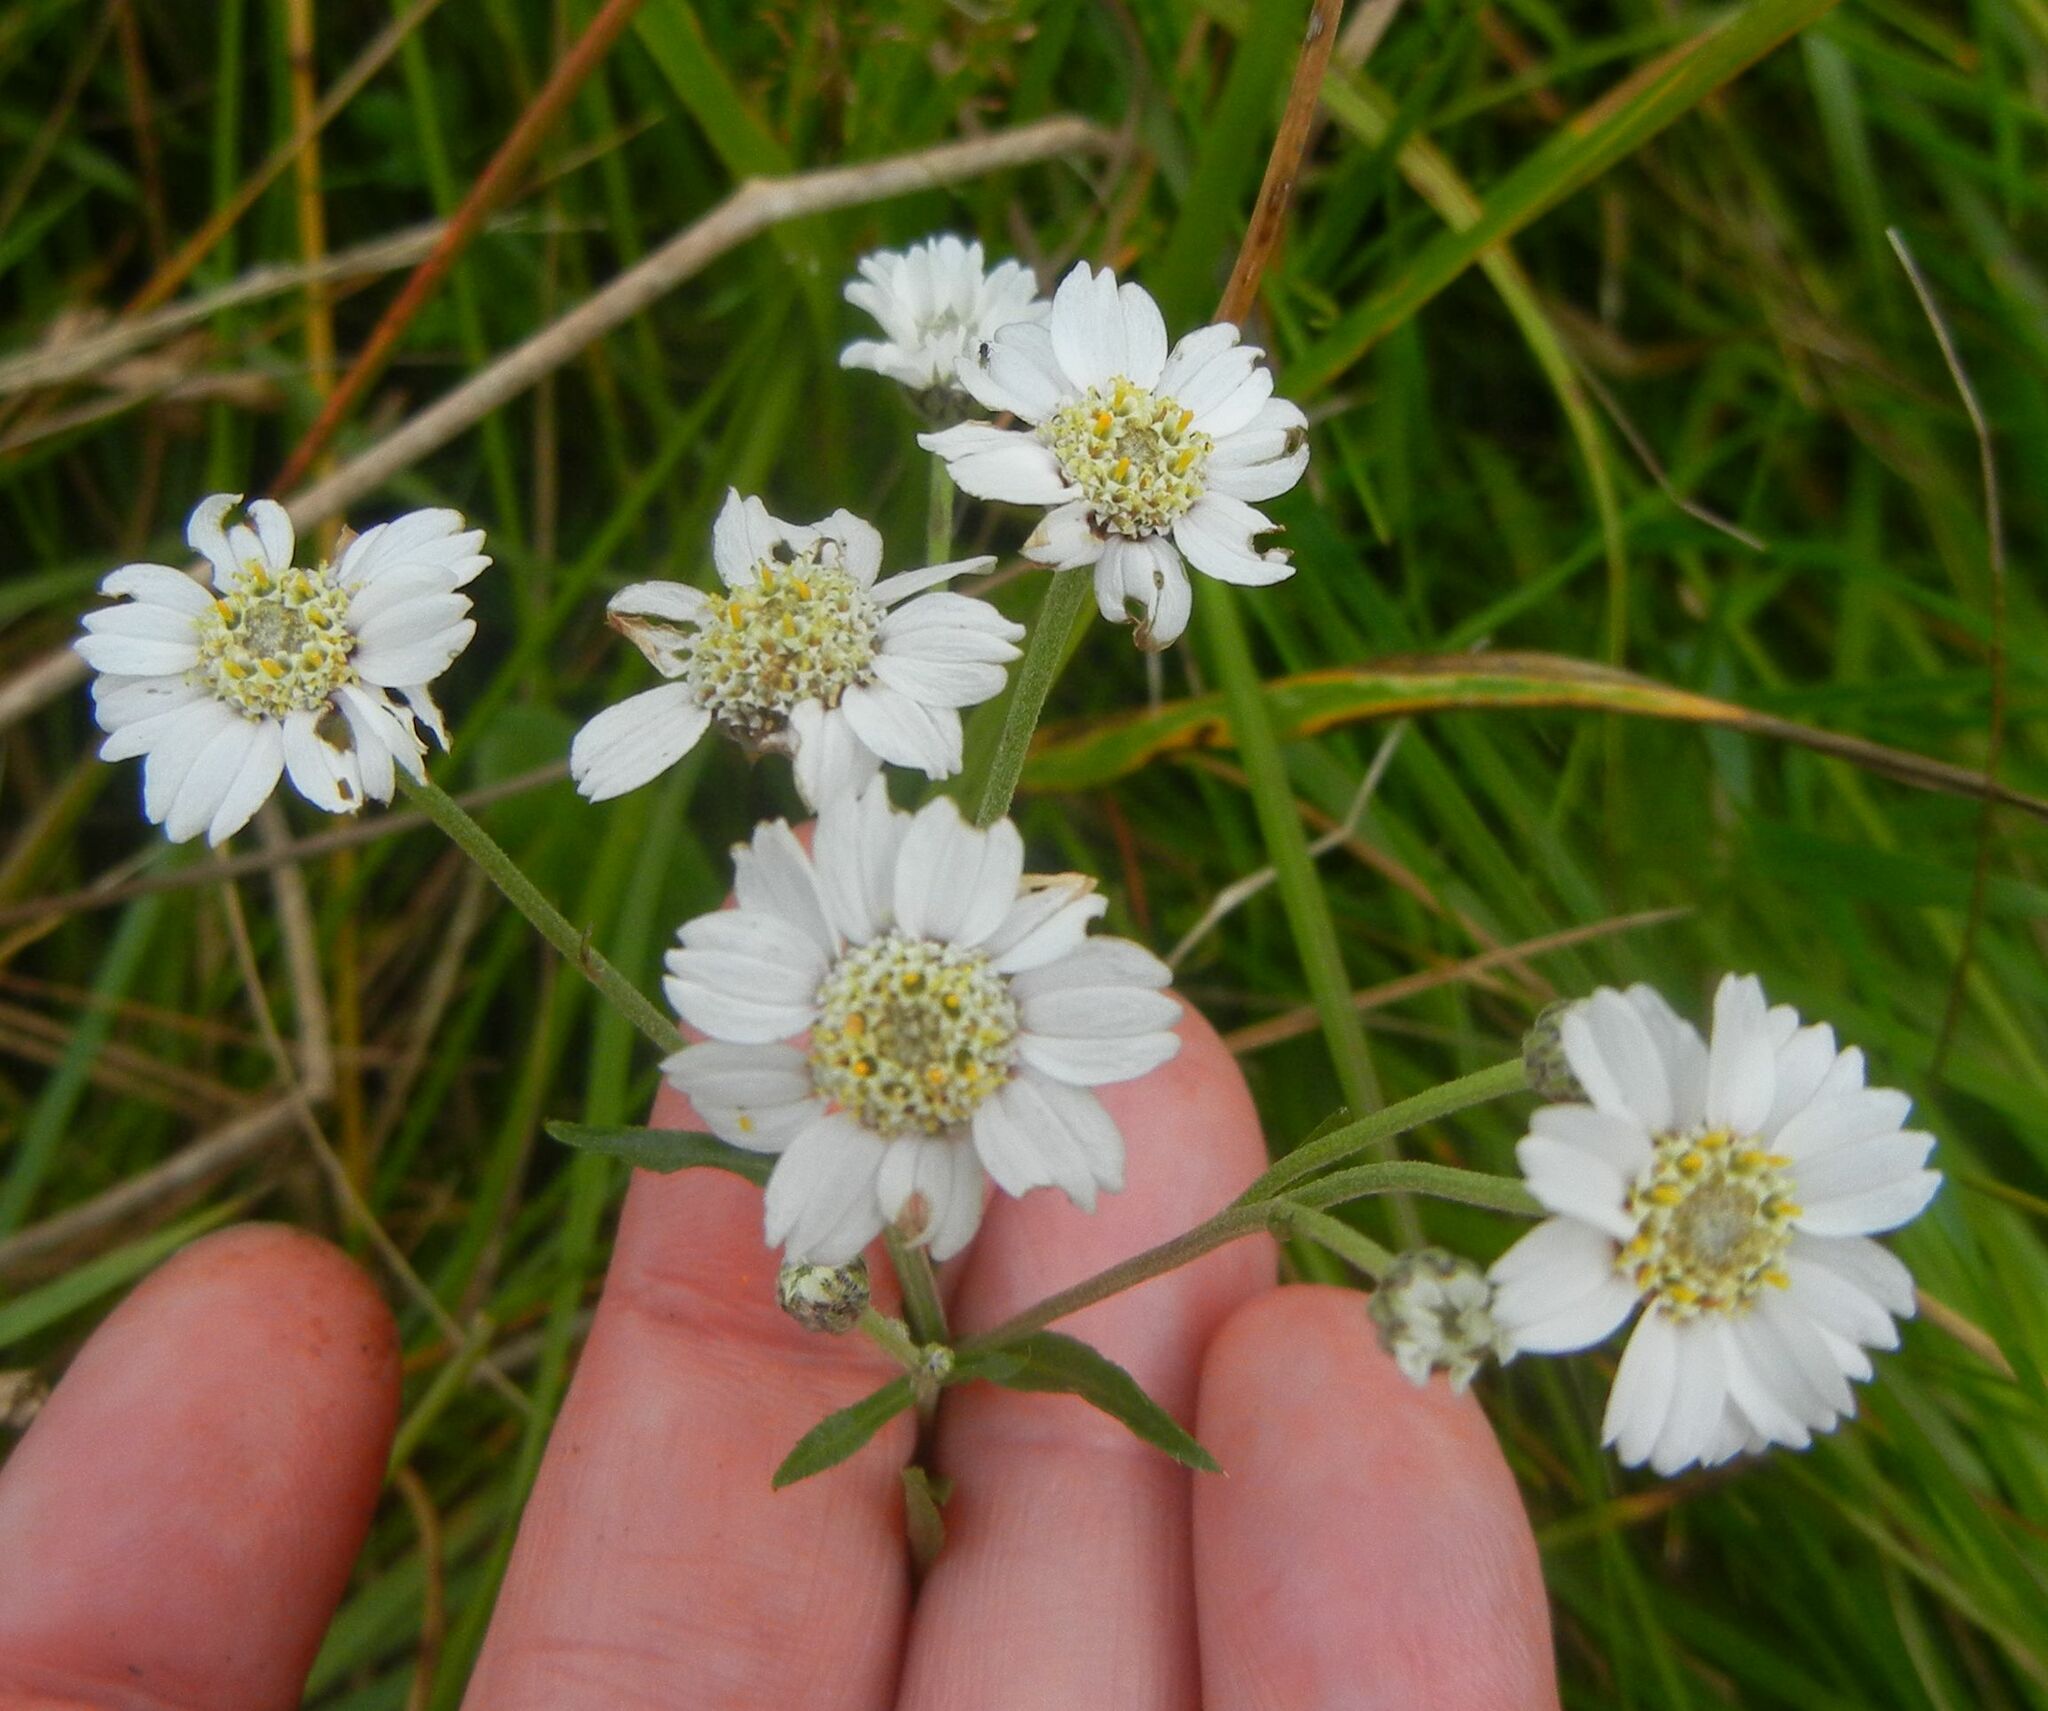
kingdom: Plantae
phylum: Tracheophyta
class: Magnoliopsida
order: Asterales
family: Asteraceae
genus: Achillea
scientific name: Achillea ptarmica
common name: Sneezeweed
